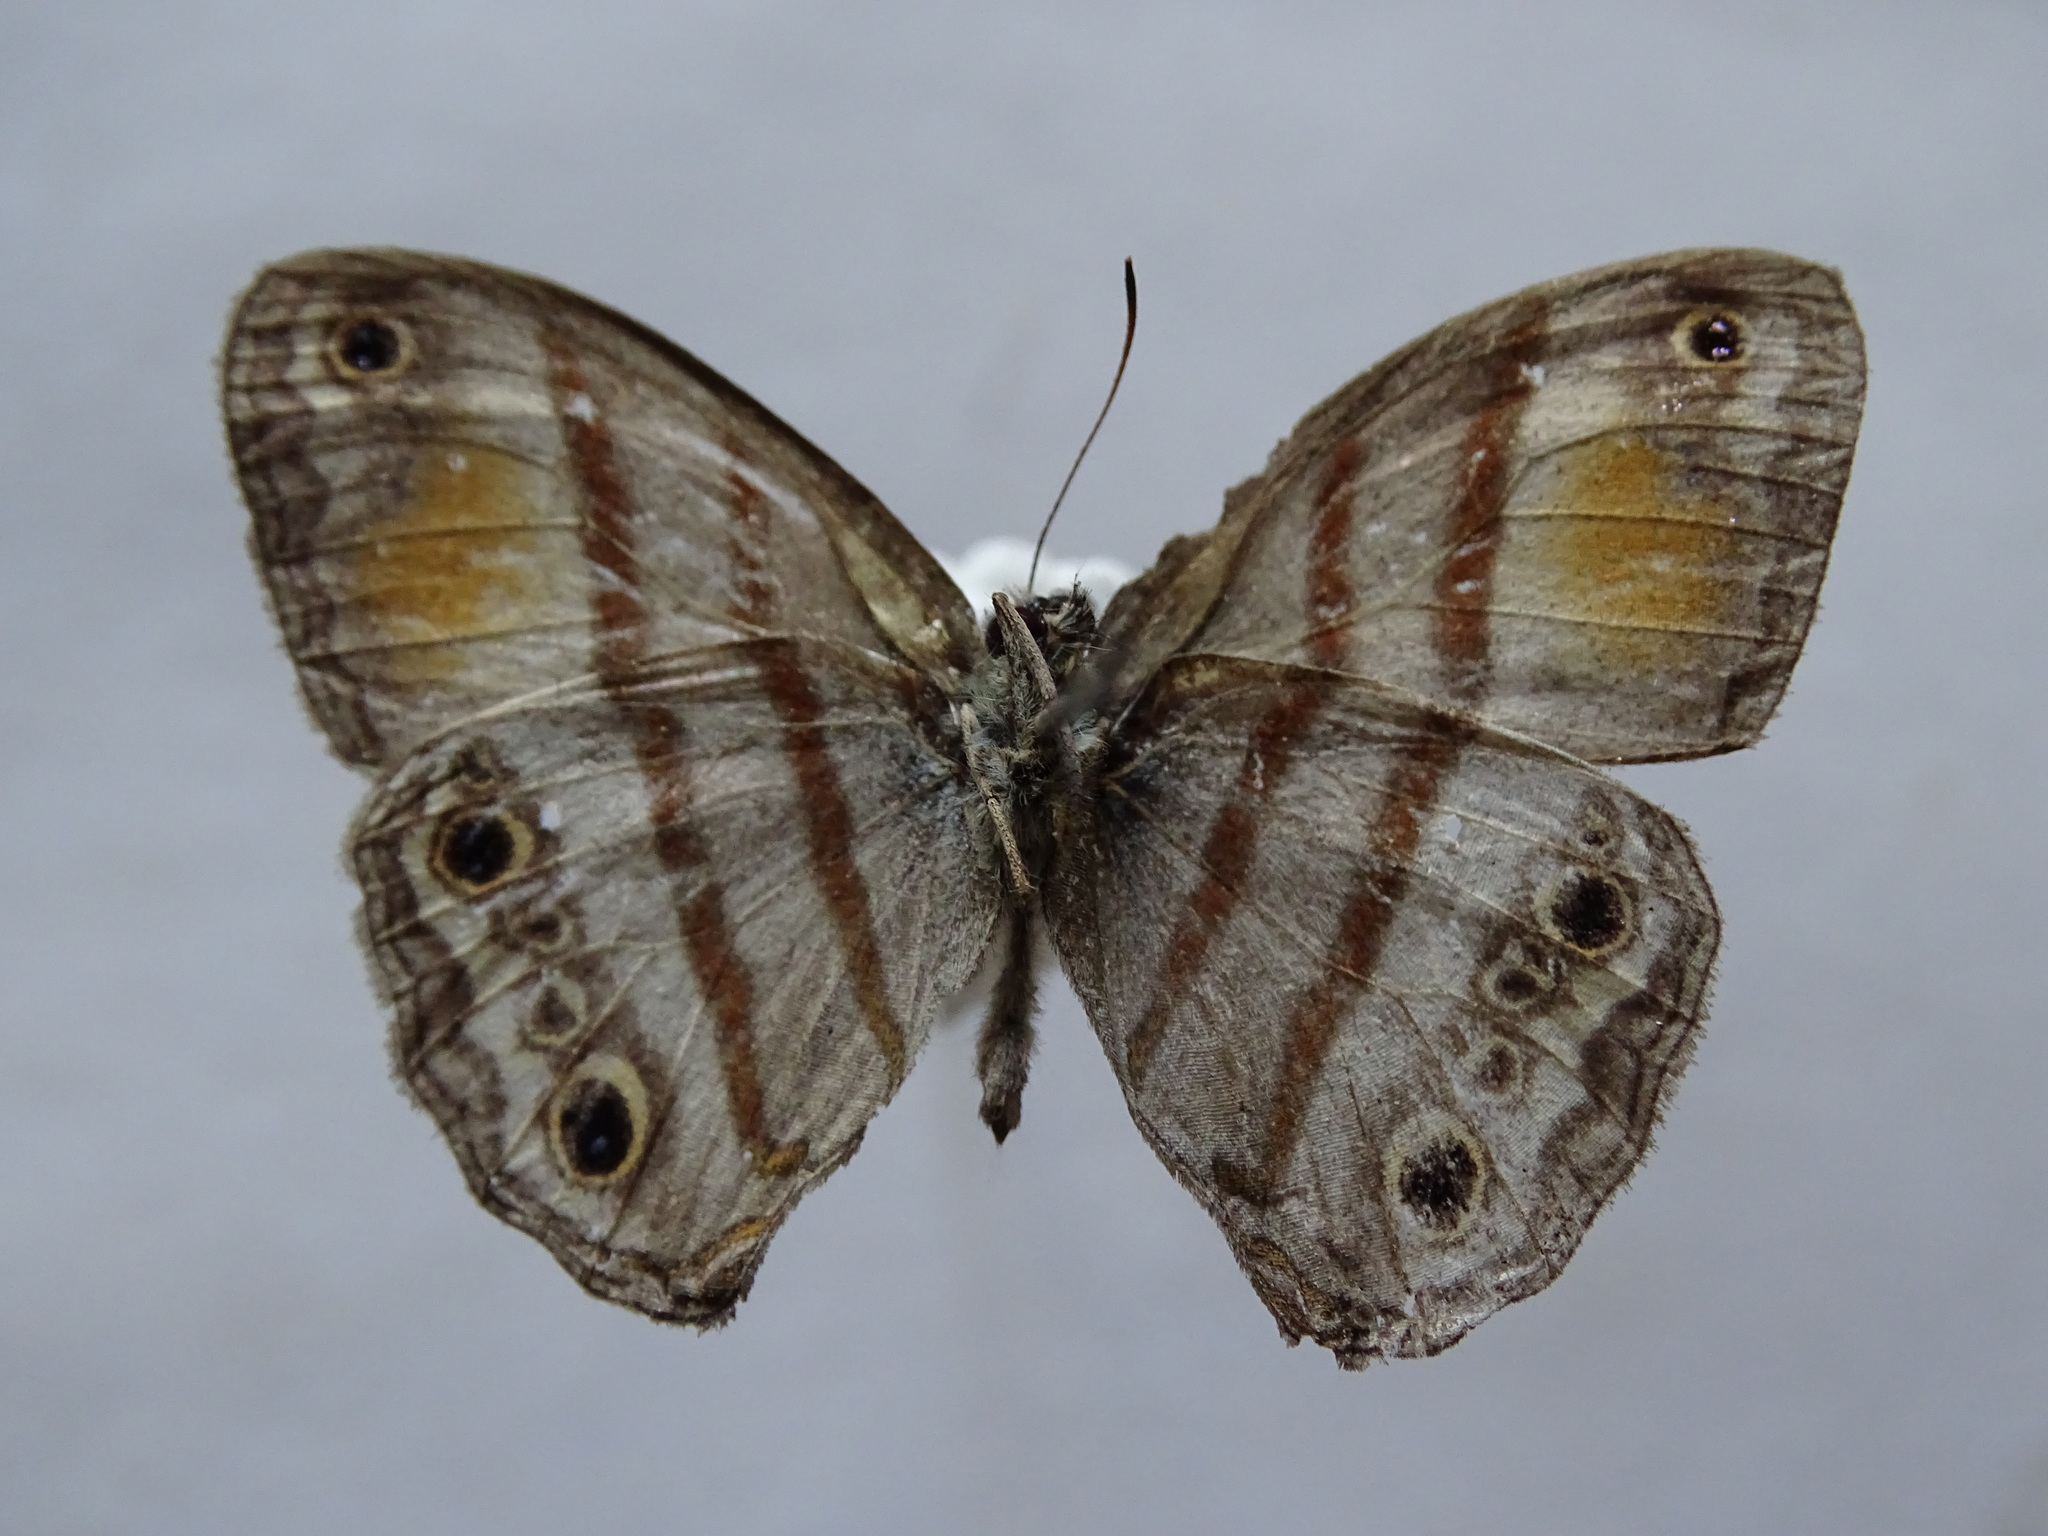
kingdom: Animalia
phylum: Arthropoda
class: Insecta
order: Lepidoptera
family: Nymphalidae
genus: Paryphthimoides
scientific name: Paryphthimoides
